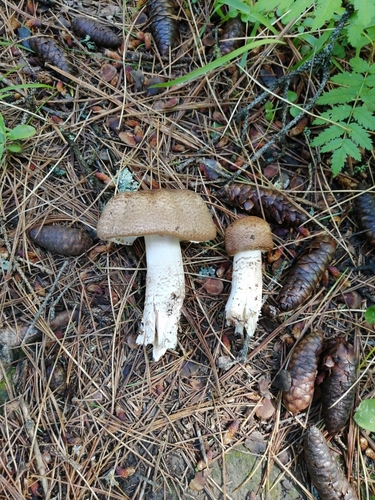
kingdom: Fungi
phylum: Basidiomycota
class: Agaricomycetes
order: Agaricales
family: Agaricaceae
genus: Agaricus
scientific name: Agaricus
